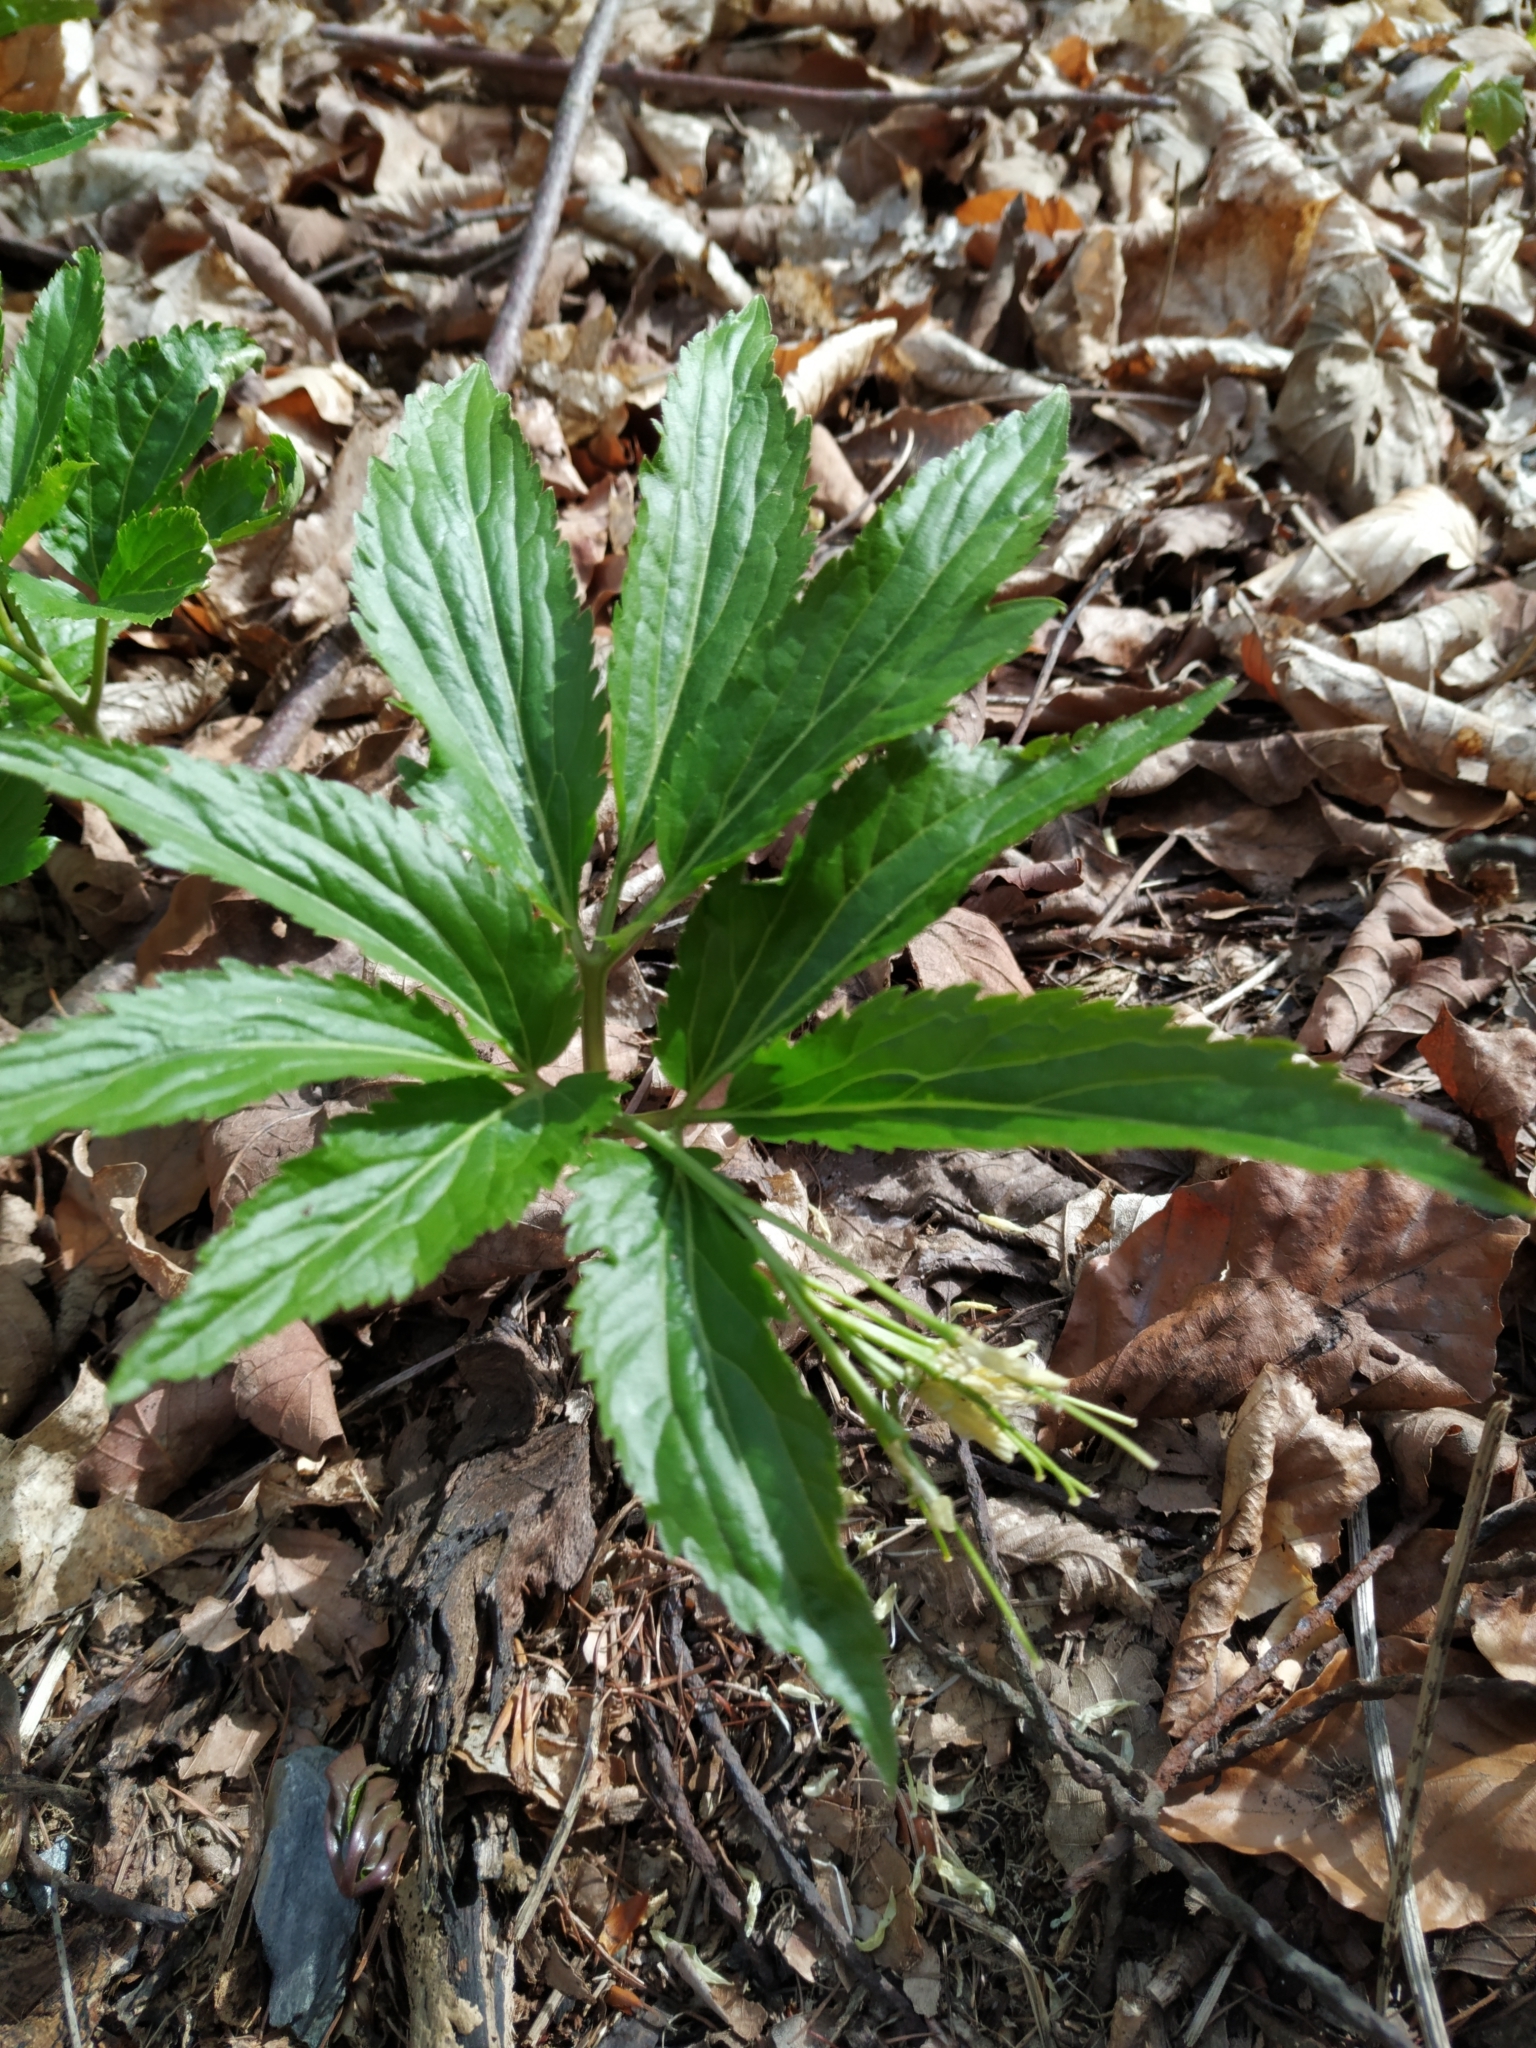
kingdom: Plantae
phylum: Tracheophyta
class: Magnoliopsida
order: Brassicales
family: Brassicaceae
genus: Cardamine
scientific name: Cardamine enneaphyllos
